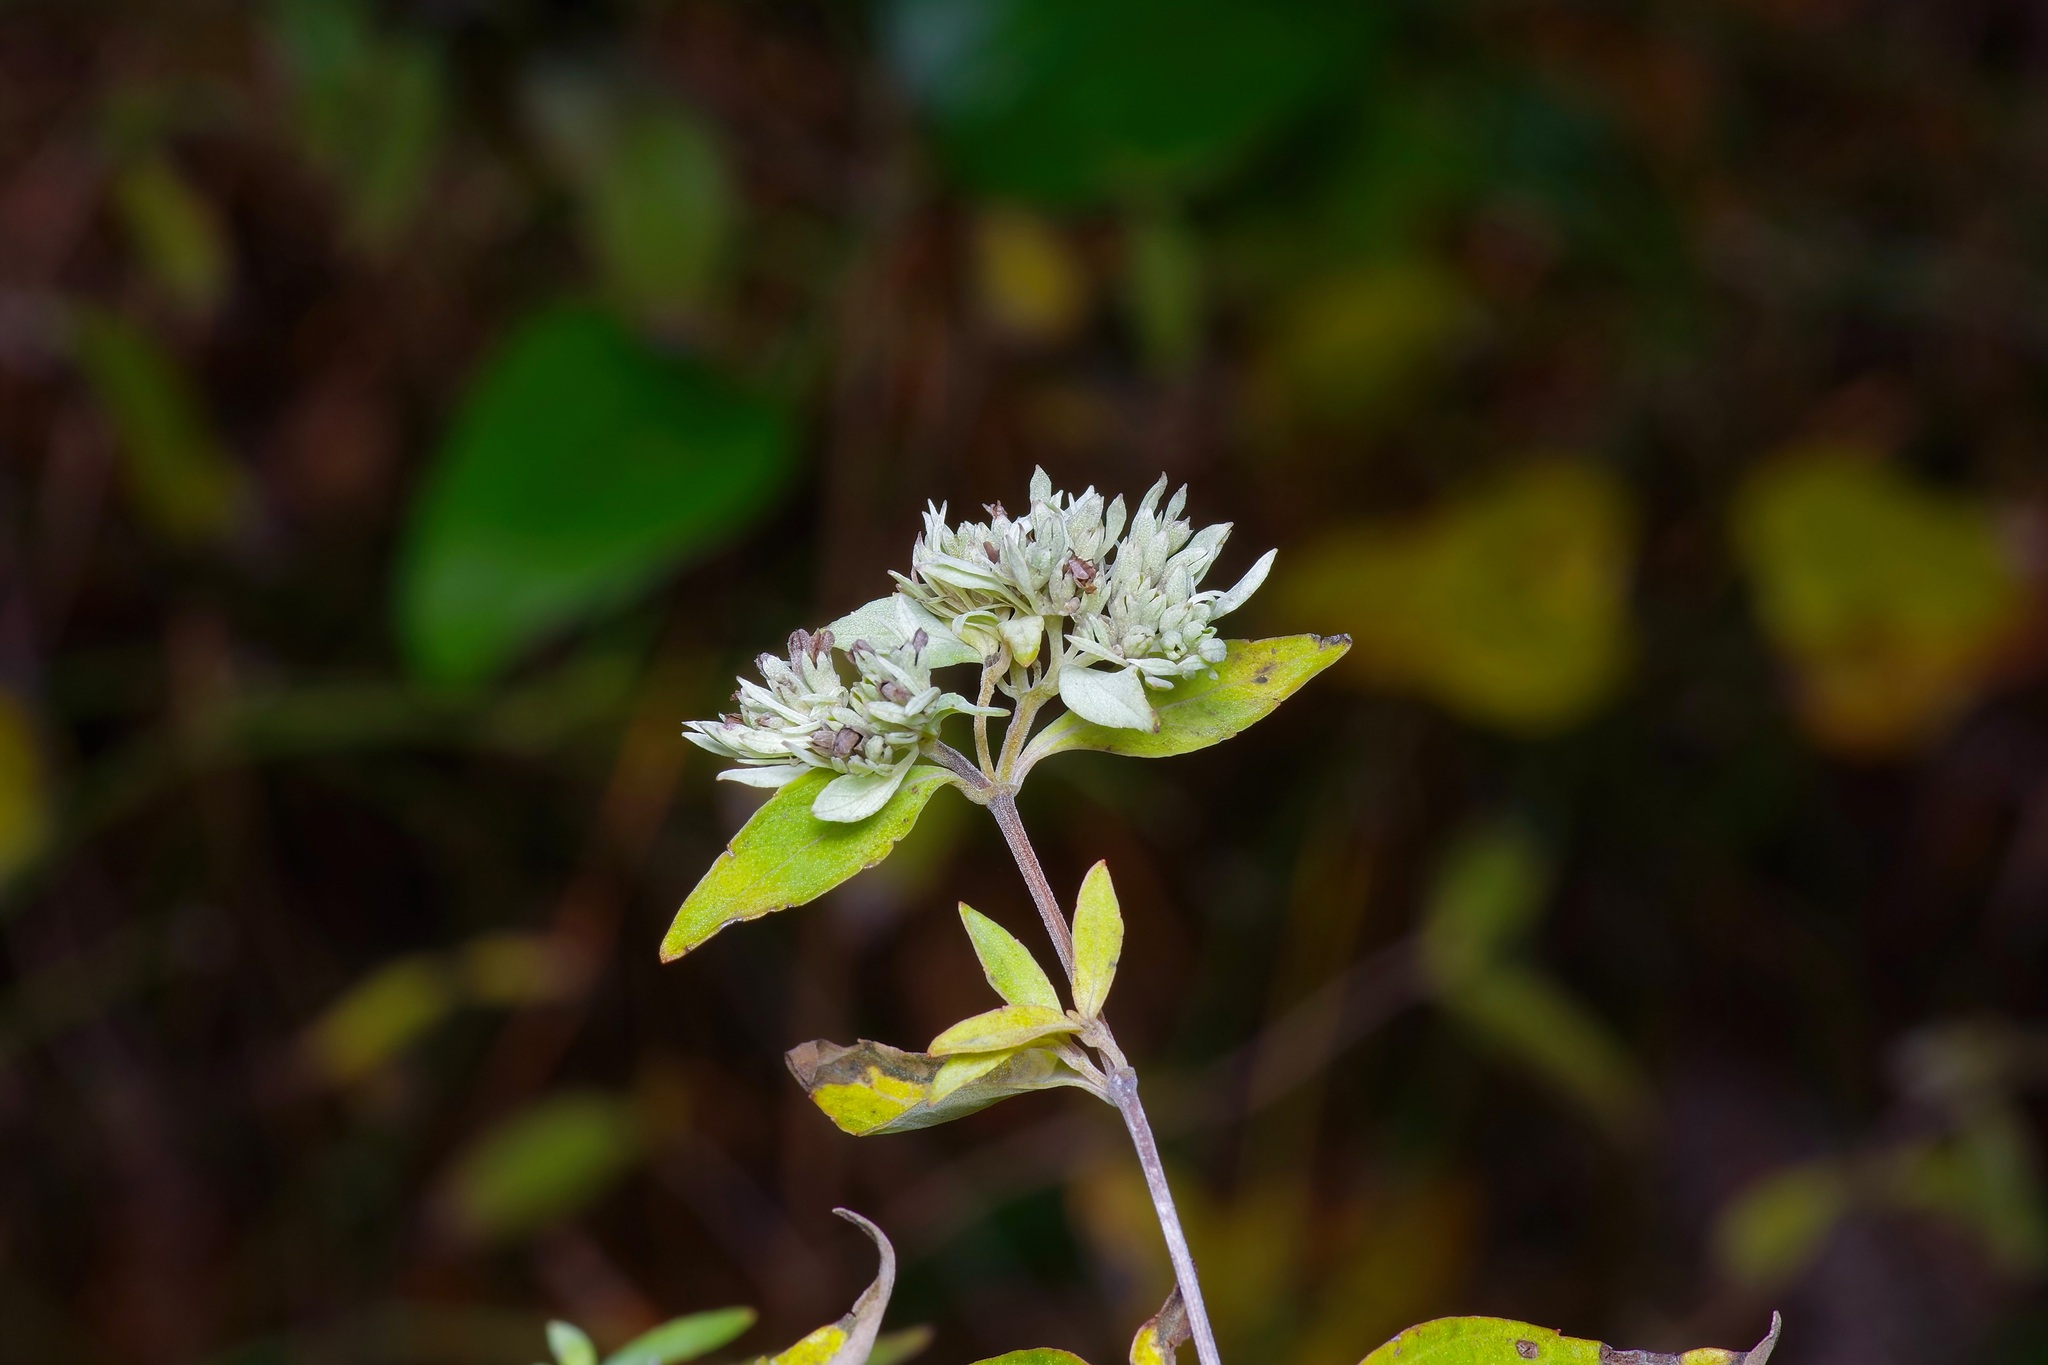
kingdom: Plantae
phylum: Tracheophyta
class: Magnoliopsida
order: Lamiales
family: Lamiaceae
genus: Pycnanthemum
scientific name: Pycnanthemum albescens
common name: White-leaf mountain-mint
